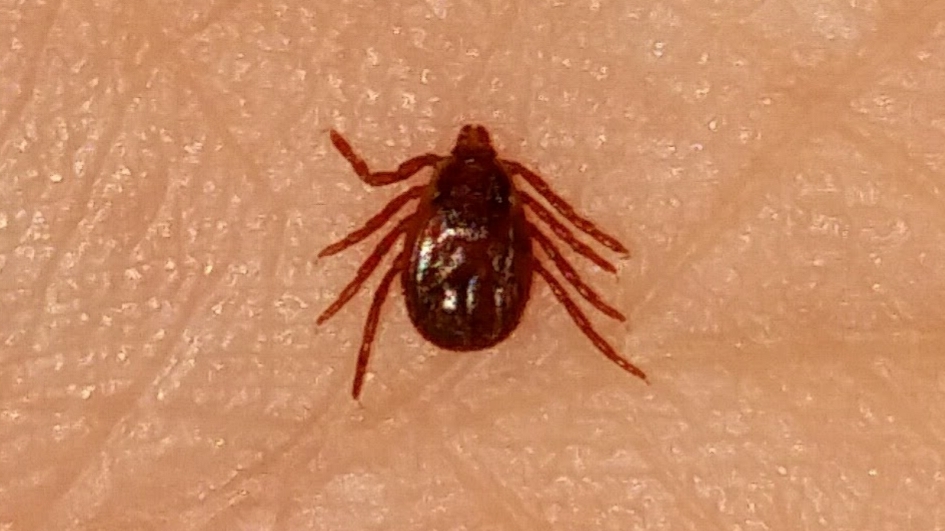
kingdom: Animalia
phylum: Arthropoda
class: Arachnida
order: Ixodida
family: Ixodidae
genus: Rhipicephalus
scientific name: Rhipicephalus sanguineus
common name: Brown dog tick
